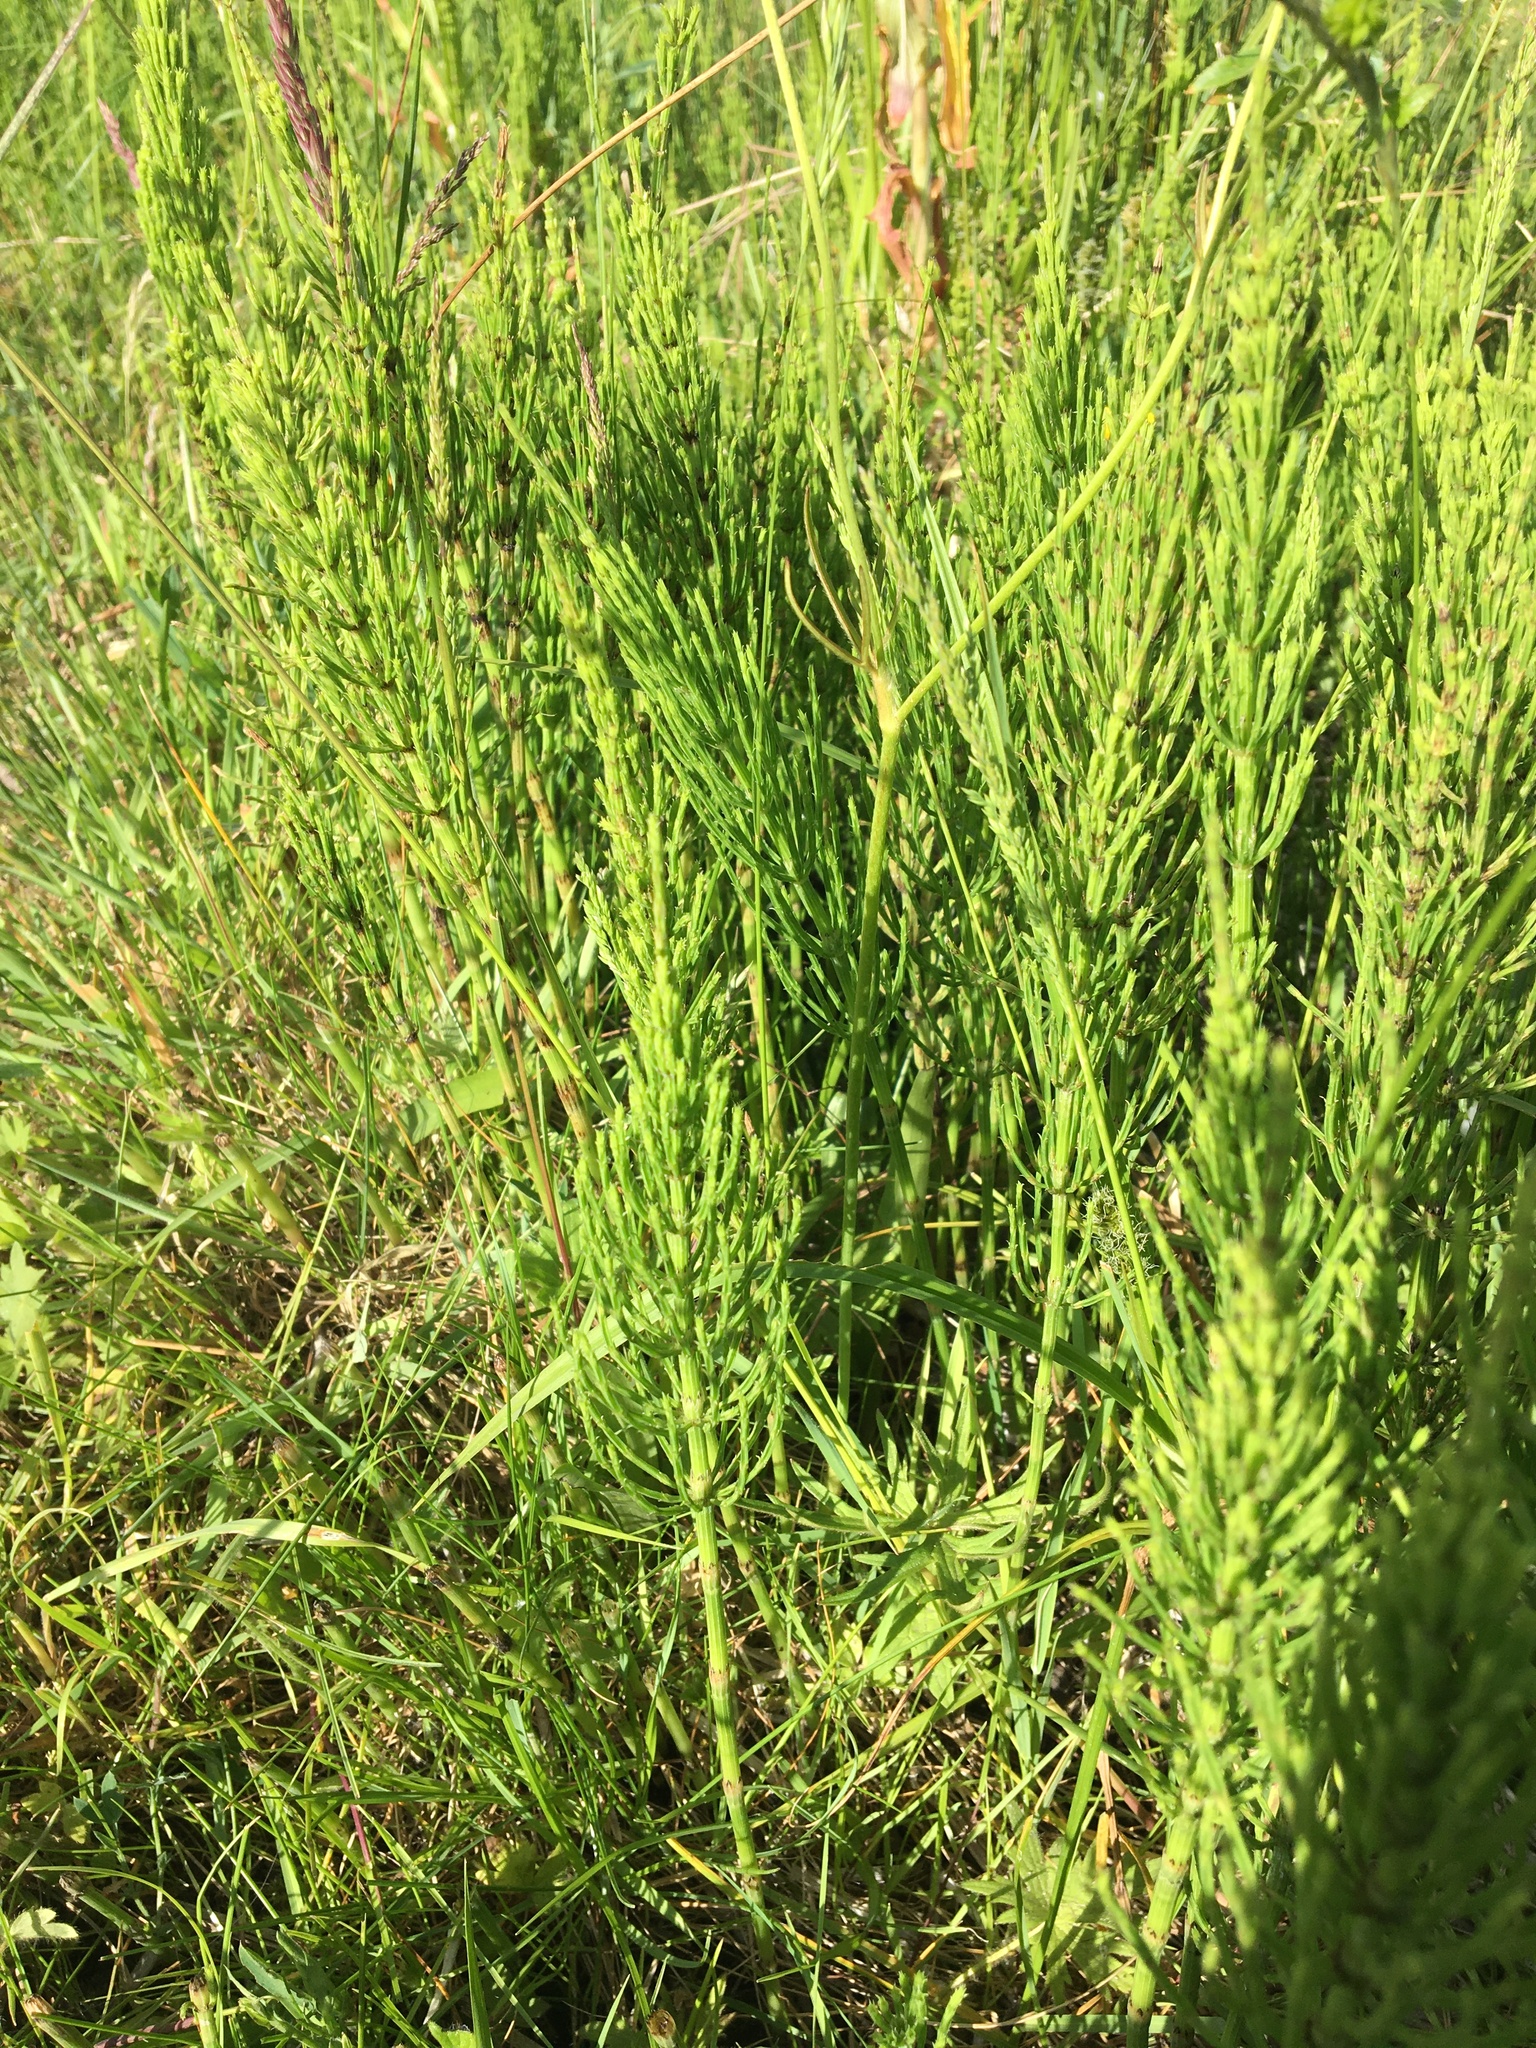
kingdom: Plantae
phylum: Tracheophyta
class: Polypodiopsida
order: Equisetales
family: Equisetaceae
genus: Equisetum
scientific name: Equisetum arvense
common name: Field horsetail
